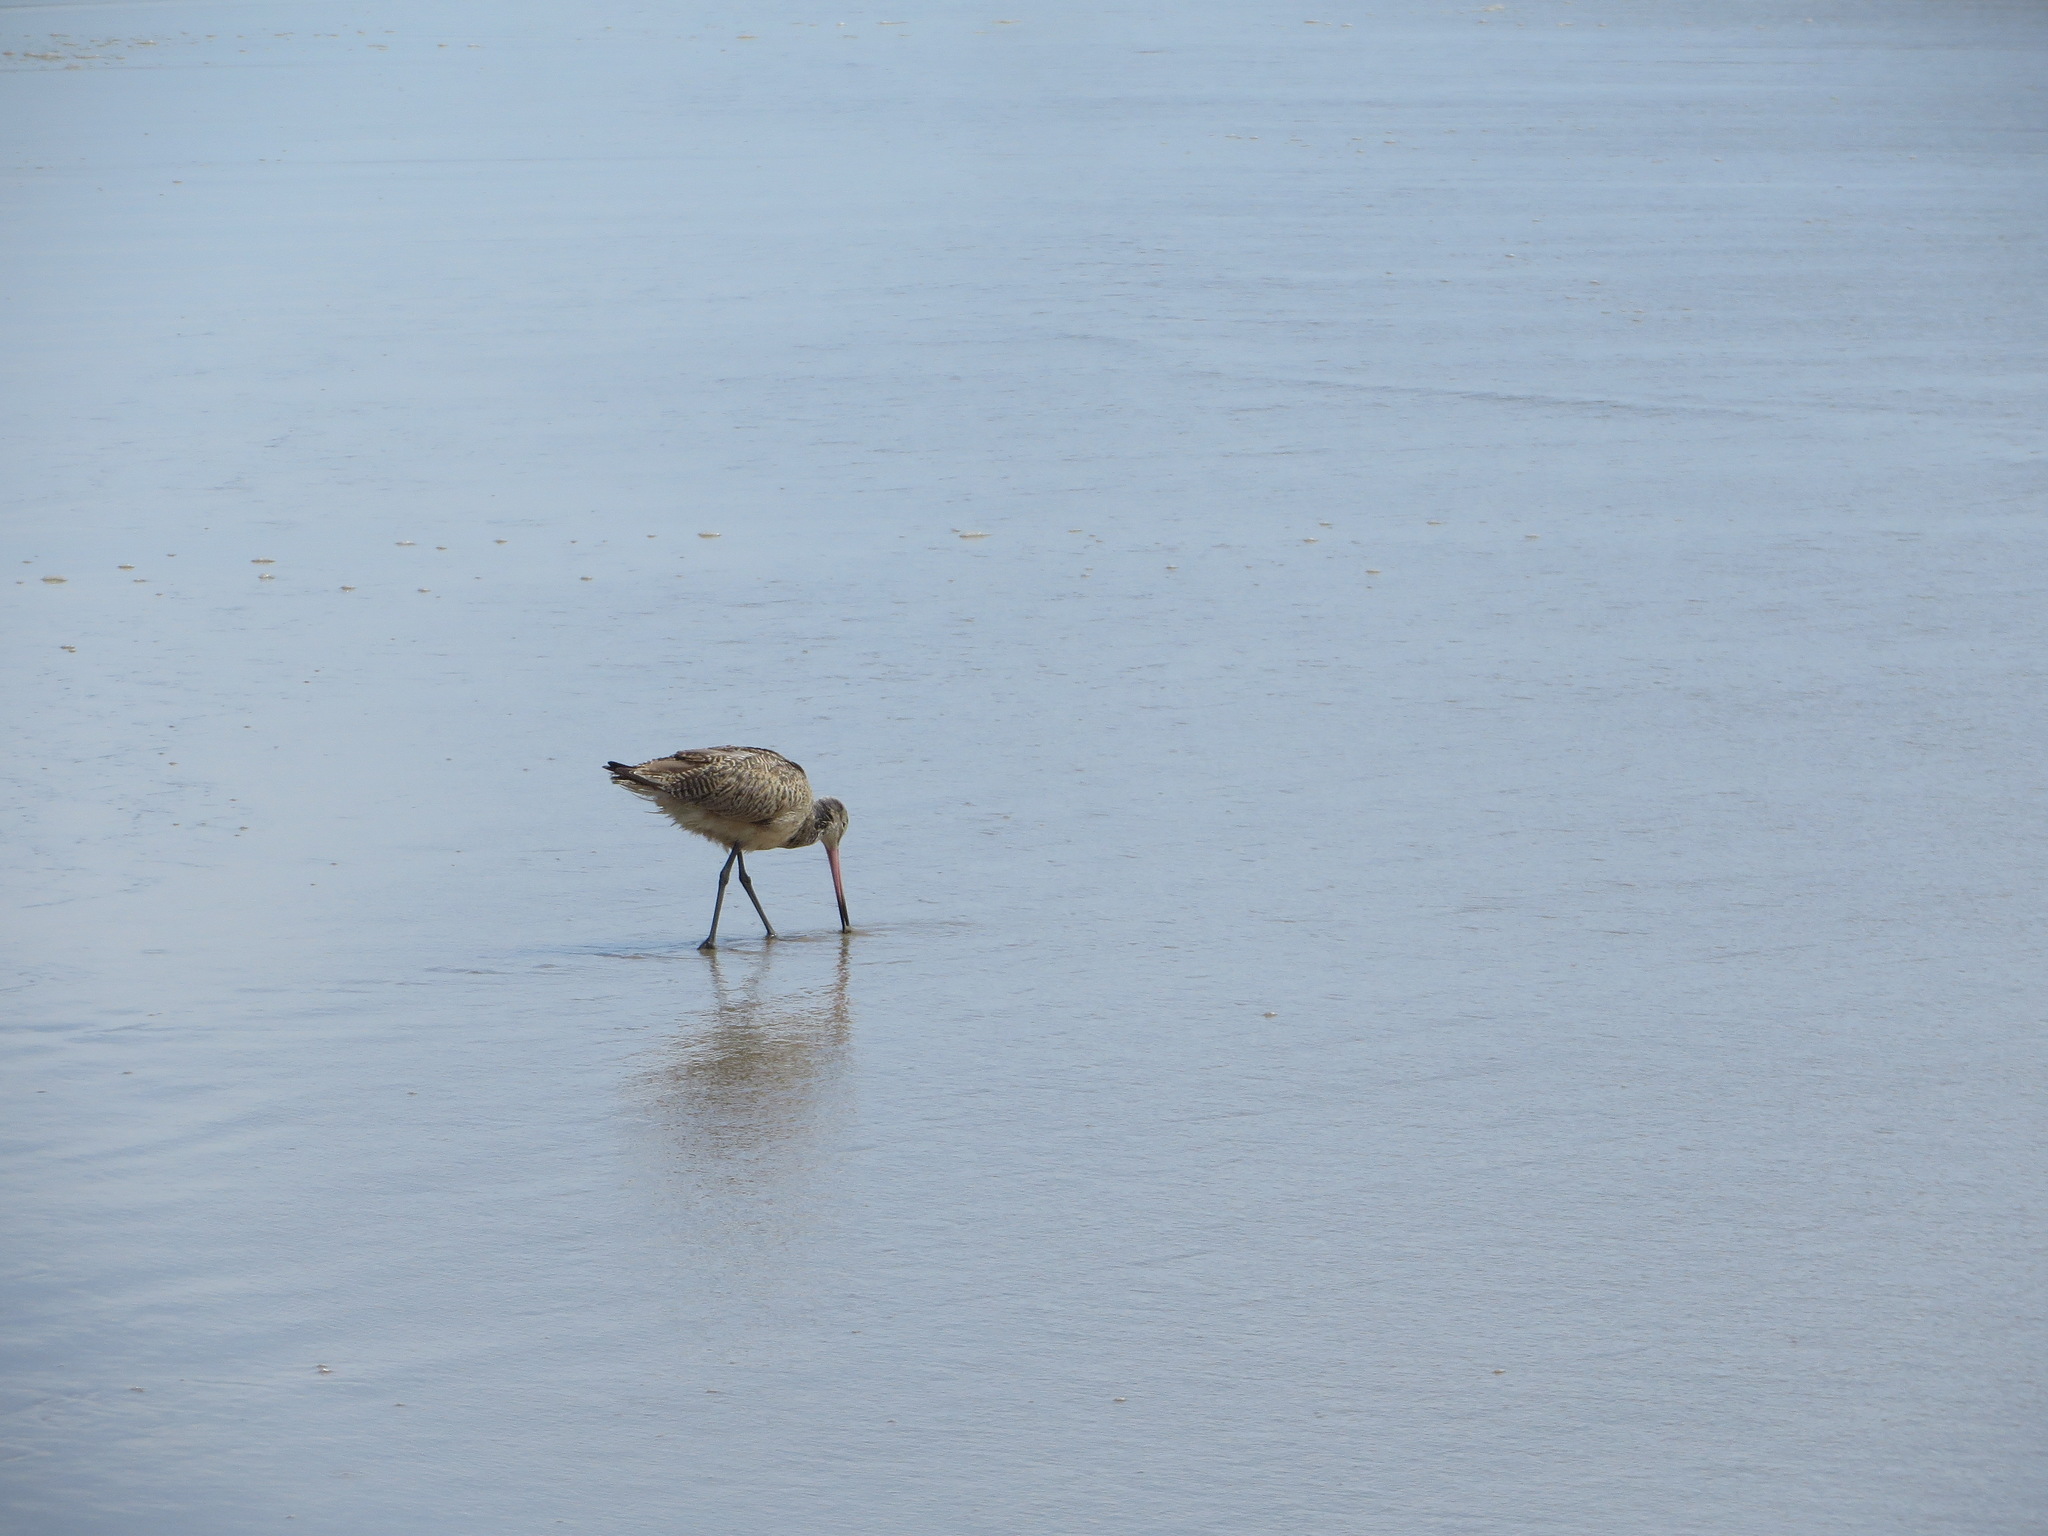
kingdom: Animalia
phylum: Chordata
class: Aves
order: Charadriiformes
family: Scolopacidae
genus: Limosa
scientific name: Limosa fedoa
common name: Marbled godwit
